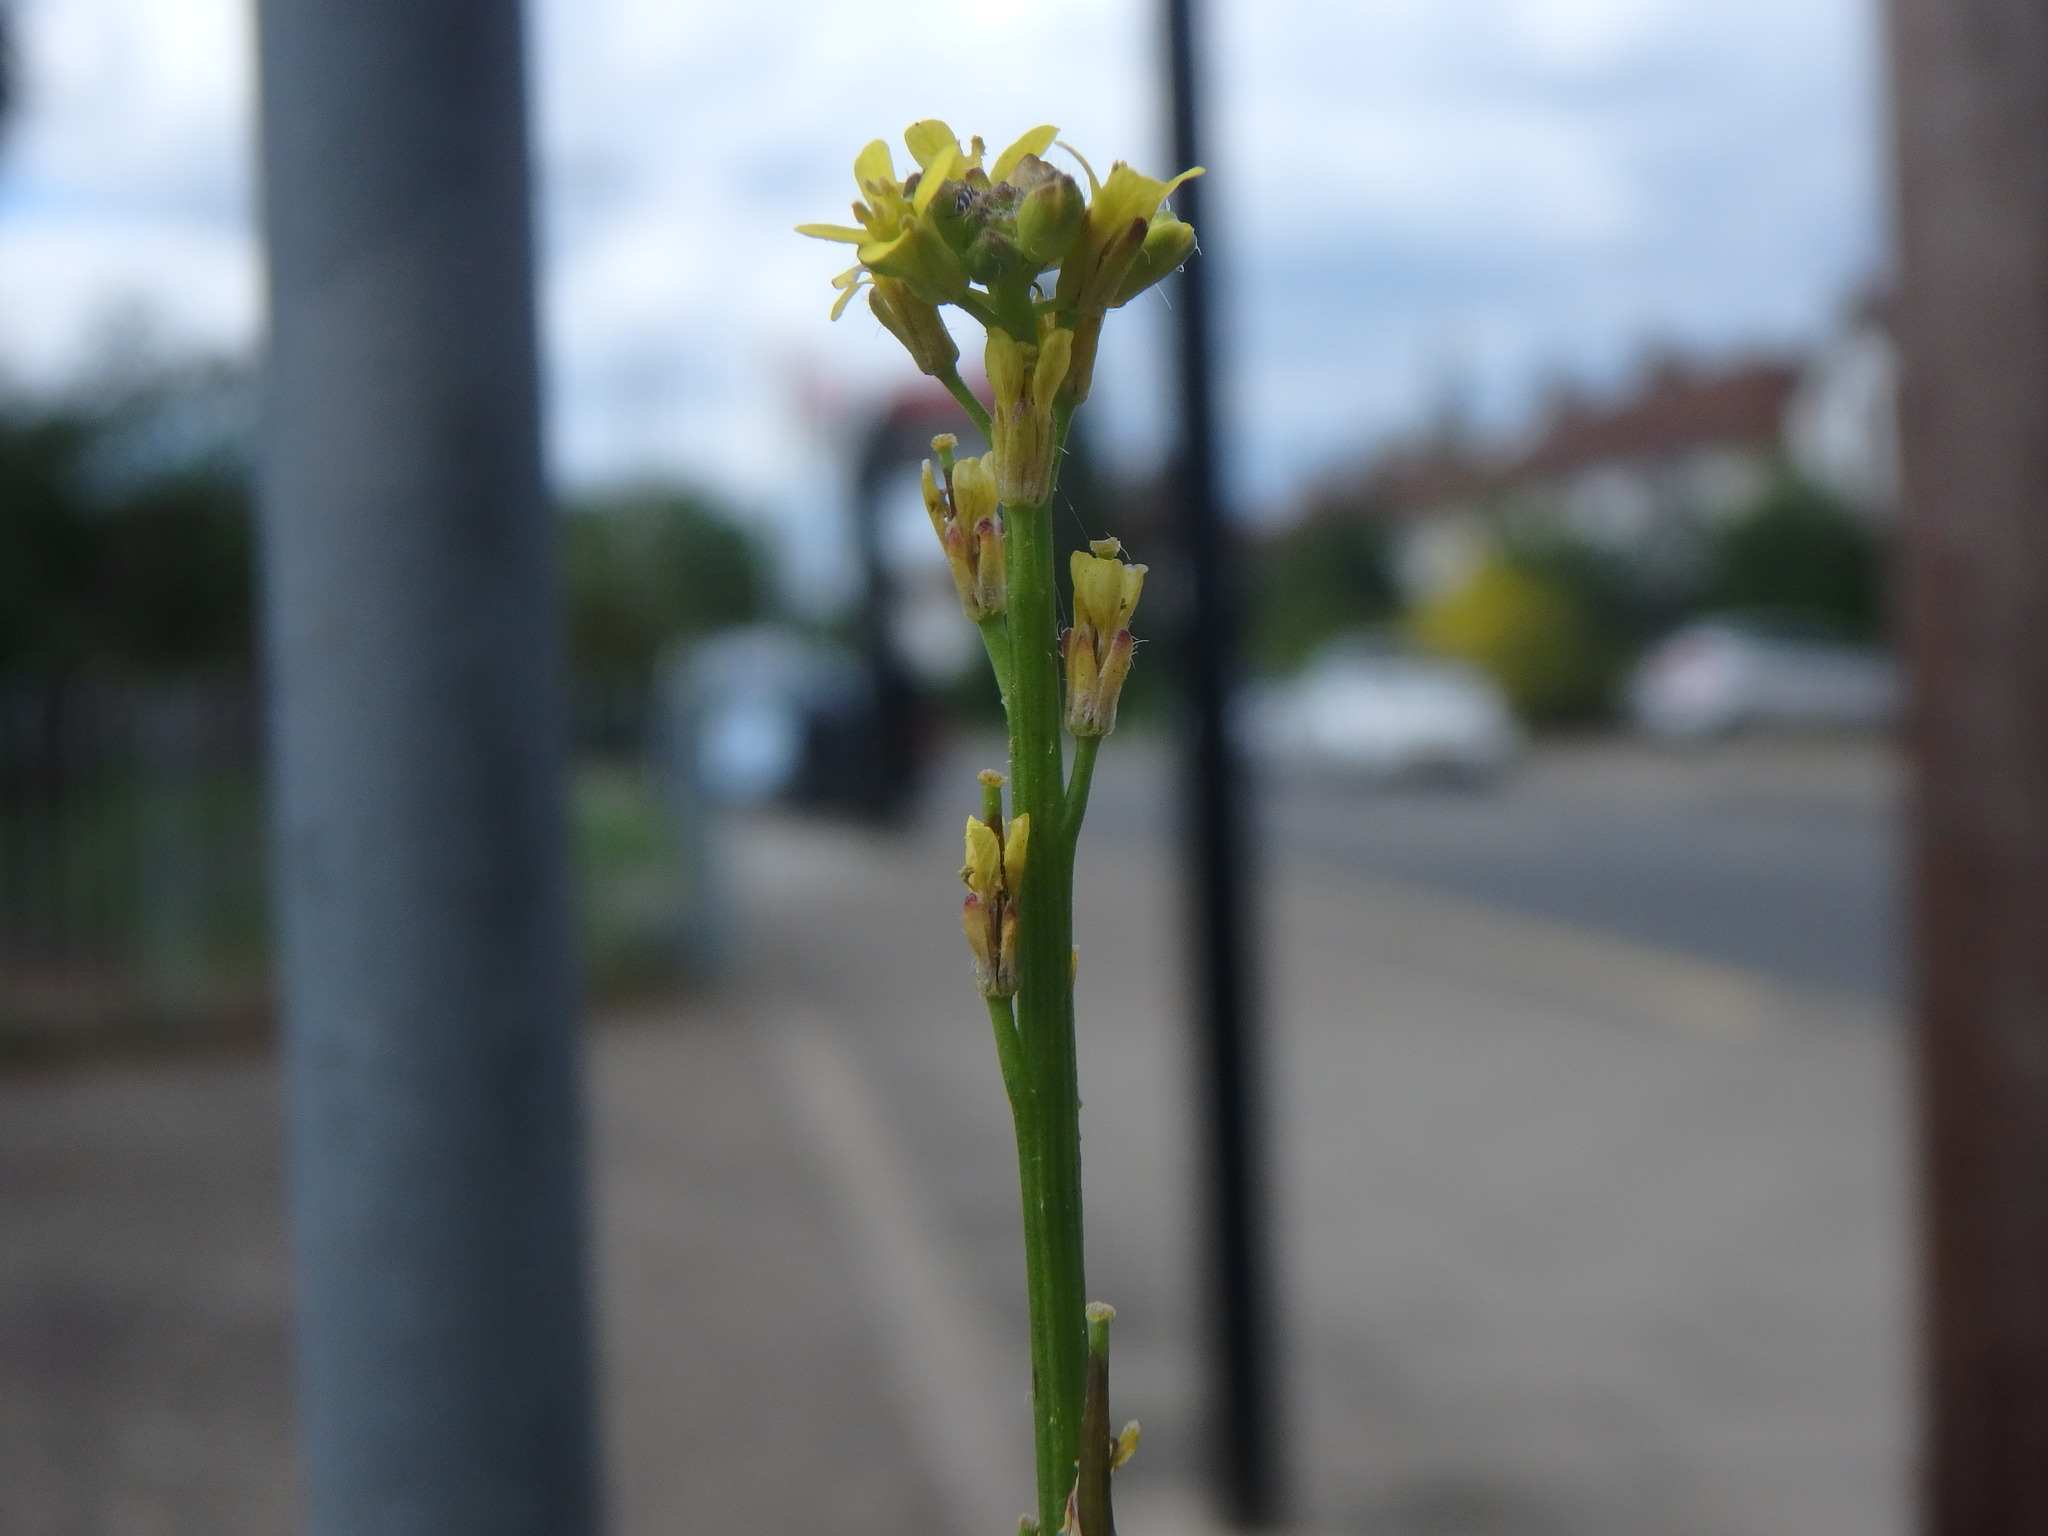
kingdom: Plantae
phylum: Tracheophyta
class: Magnoliopsida
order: Brassicales
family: Brassicaceae
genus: Sisymbrium
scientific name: Sisymbrium officinale
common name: Hedge mustard
